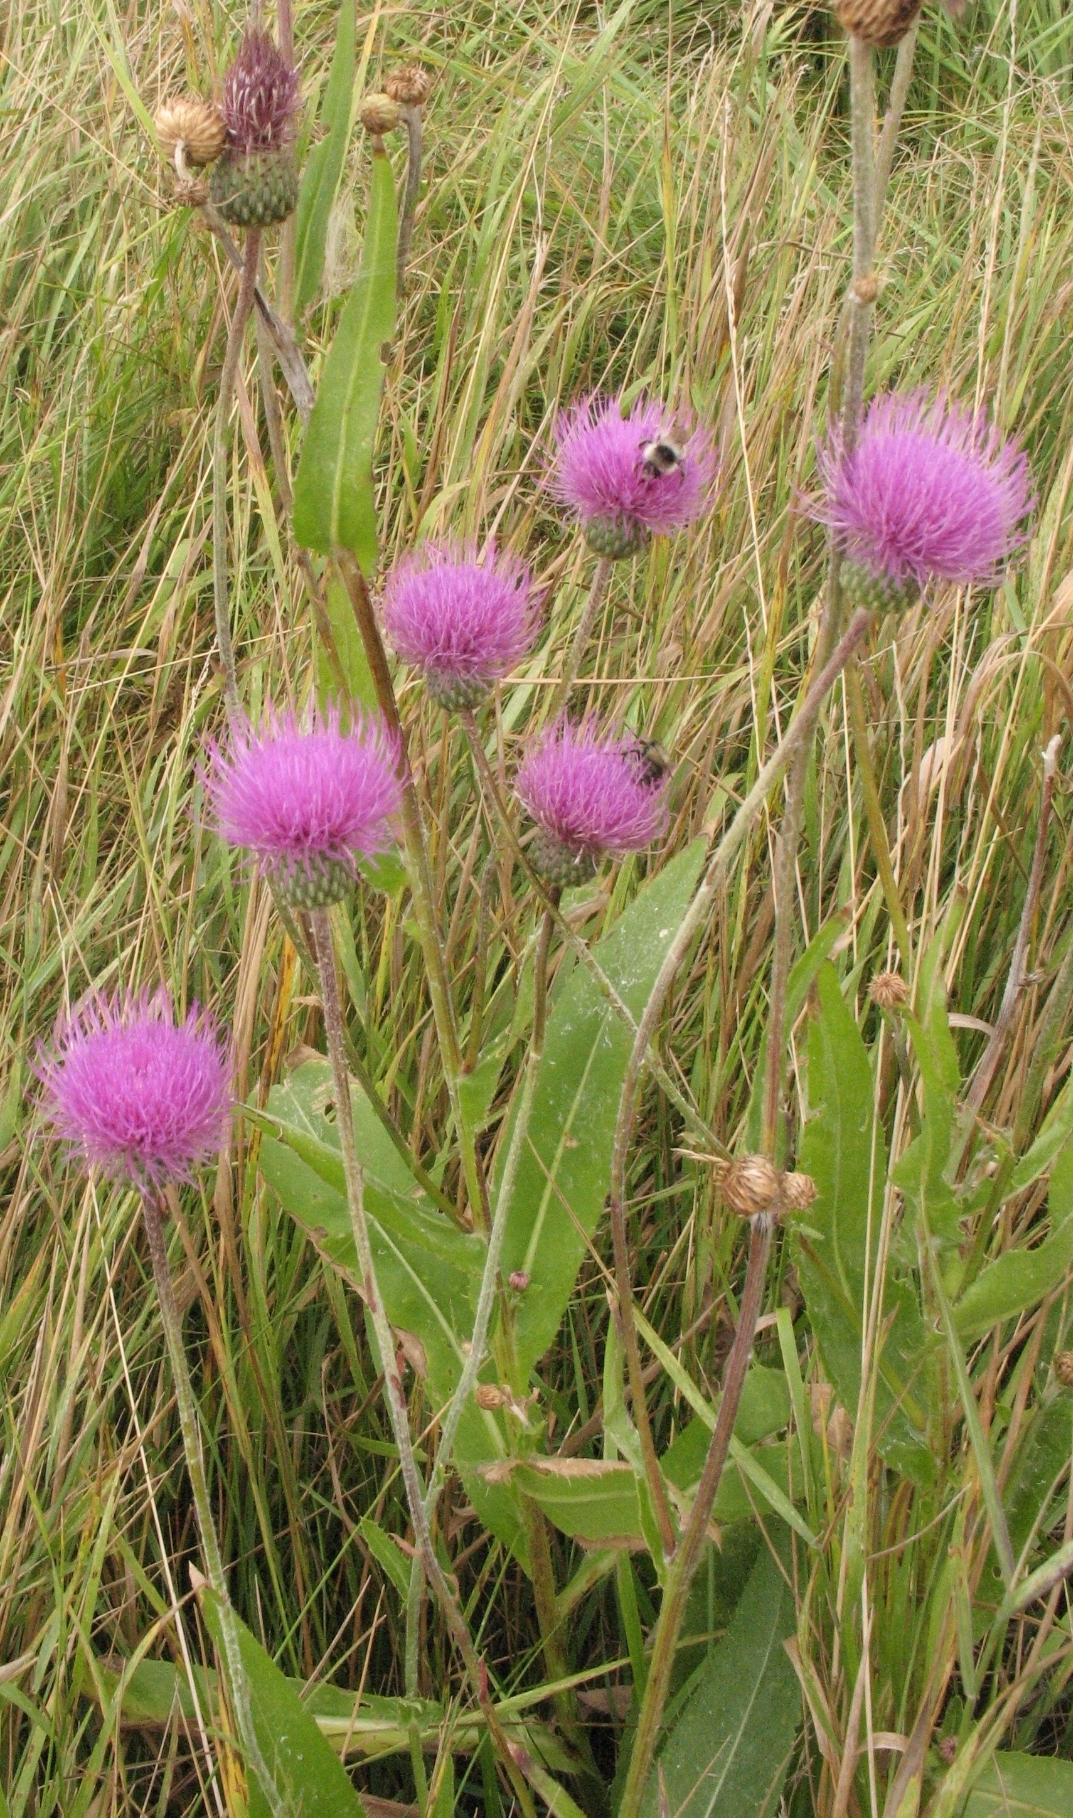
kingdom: Plantae
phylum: Tracheophyta
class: Magnoliopsida
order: Asterales
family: Asteraceae
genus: Cirsium
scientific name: Cirsium canum
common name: Queen anne's thistle
